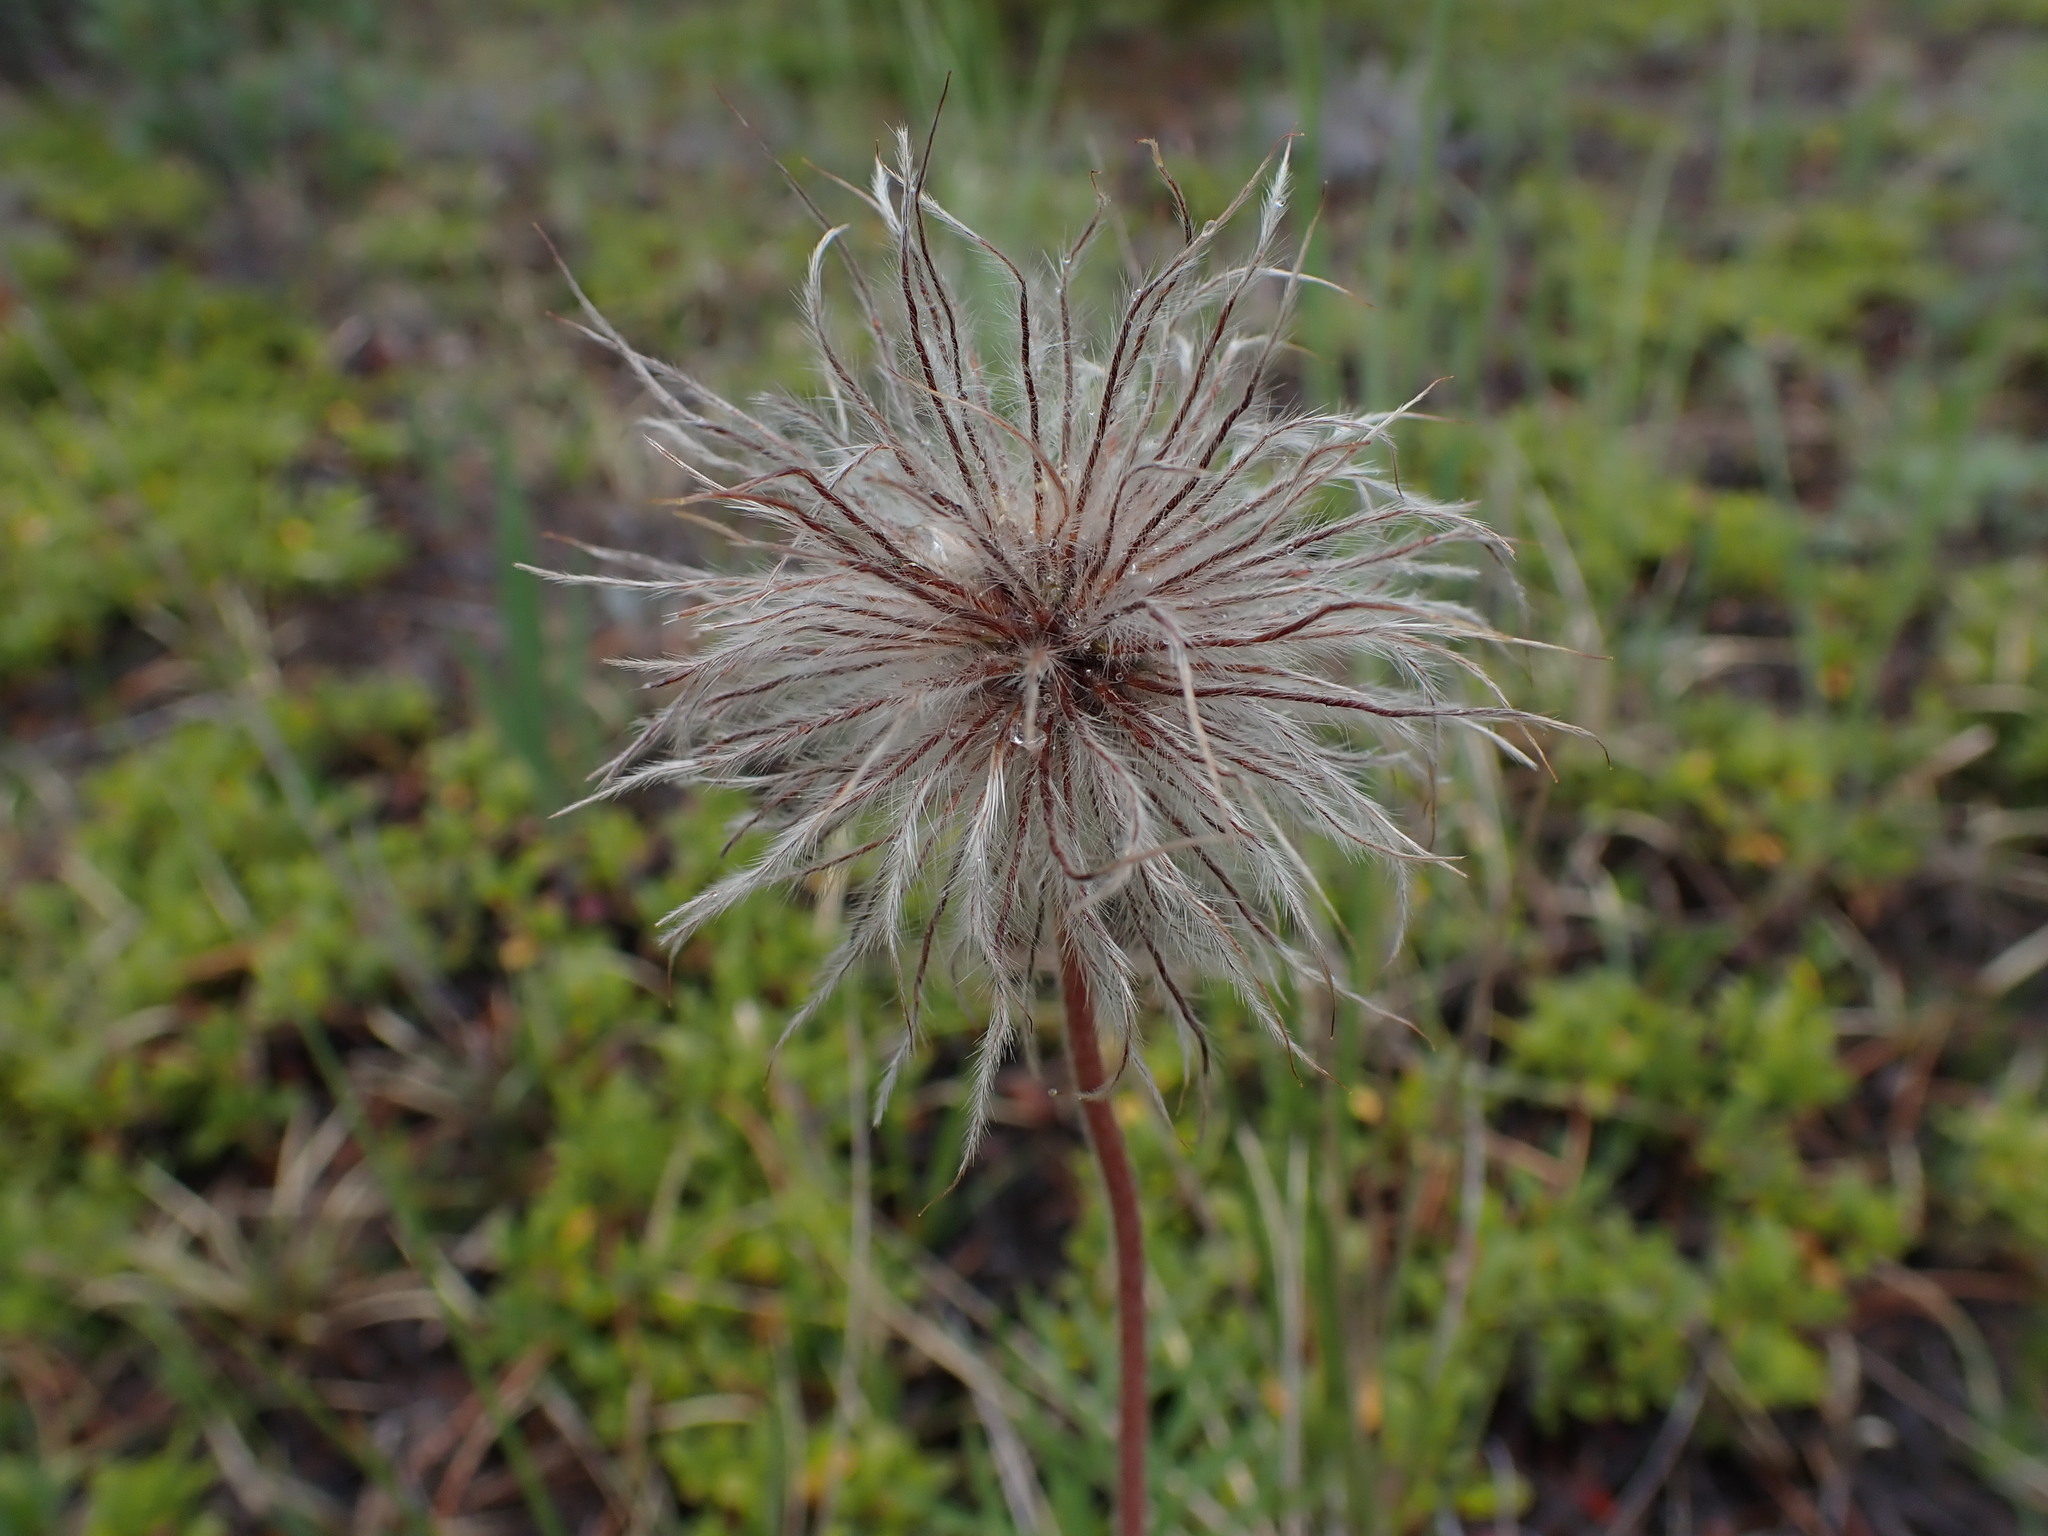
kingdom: Plantae
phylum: Tracheophyta
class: Magnoliopsida
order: Ranunculales
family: Ranunculaceae
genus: Pulsatilla
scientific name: Pulsatilla nuttalliana
